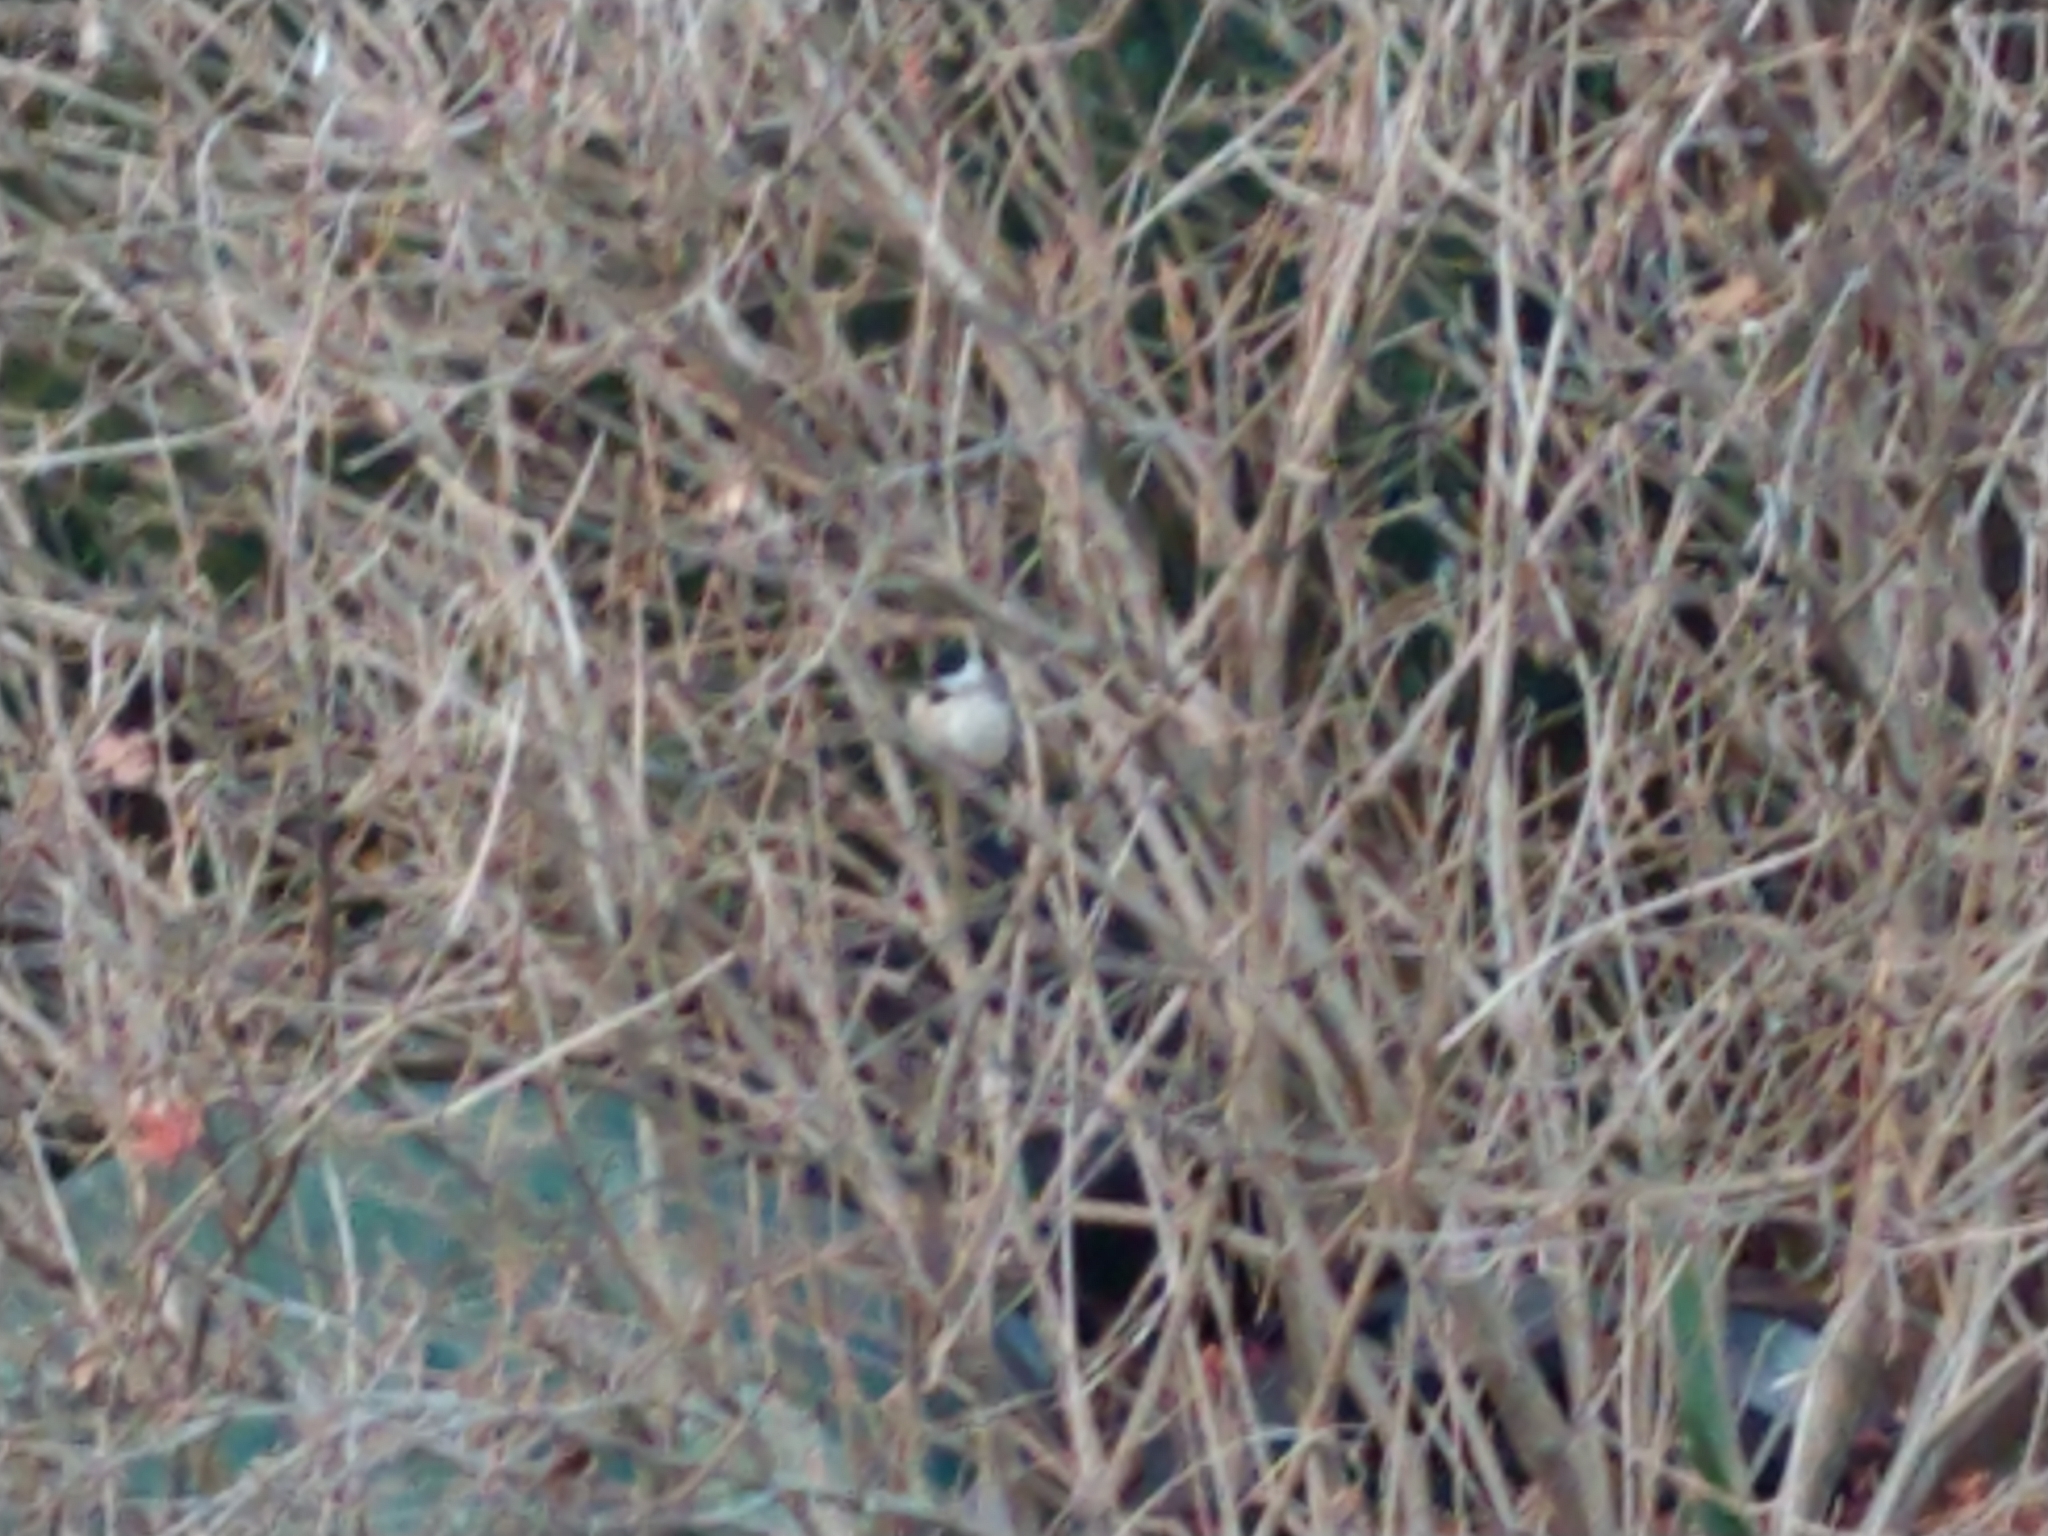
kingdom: Animalia
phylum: Chordata
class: Aves
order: Passeriformes
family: Paridae
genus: Poecile
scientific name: Poecile carolinensis
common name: Carolina chickadee
